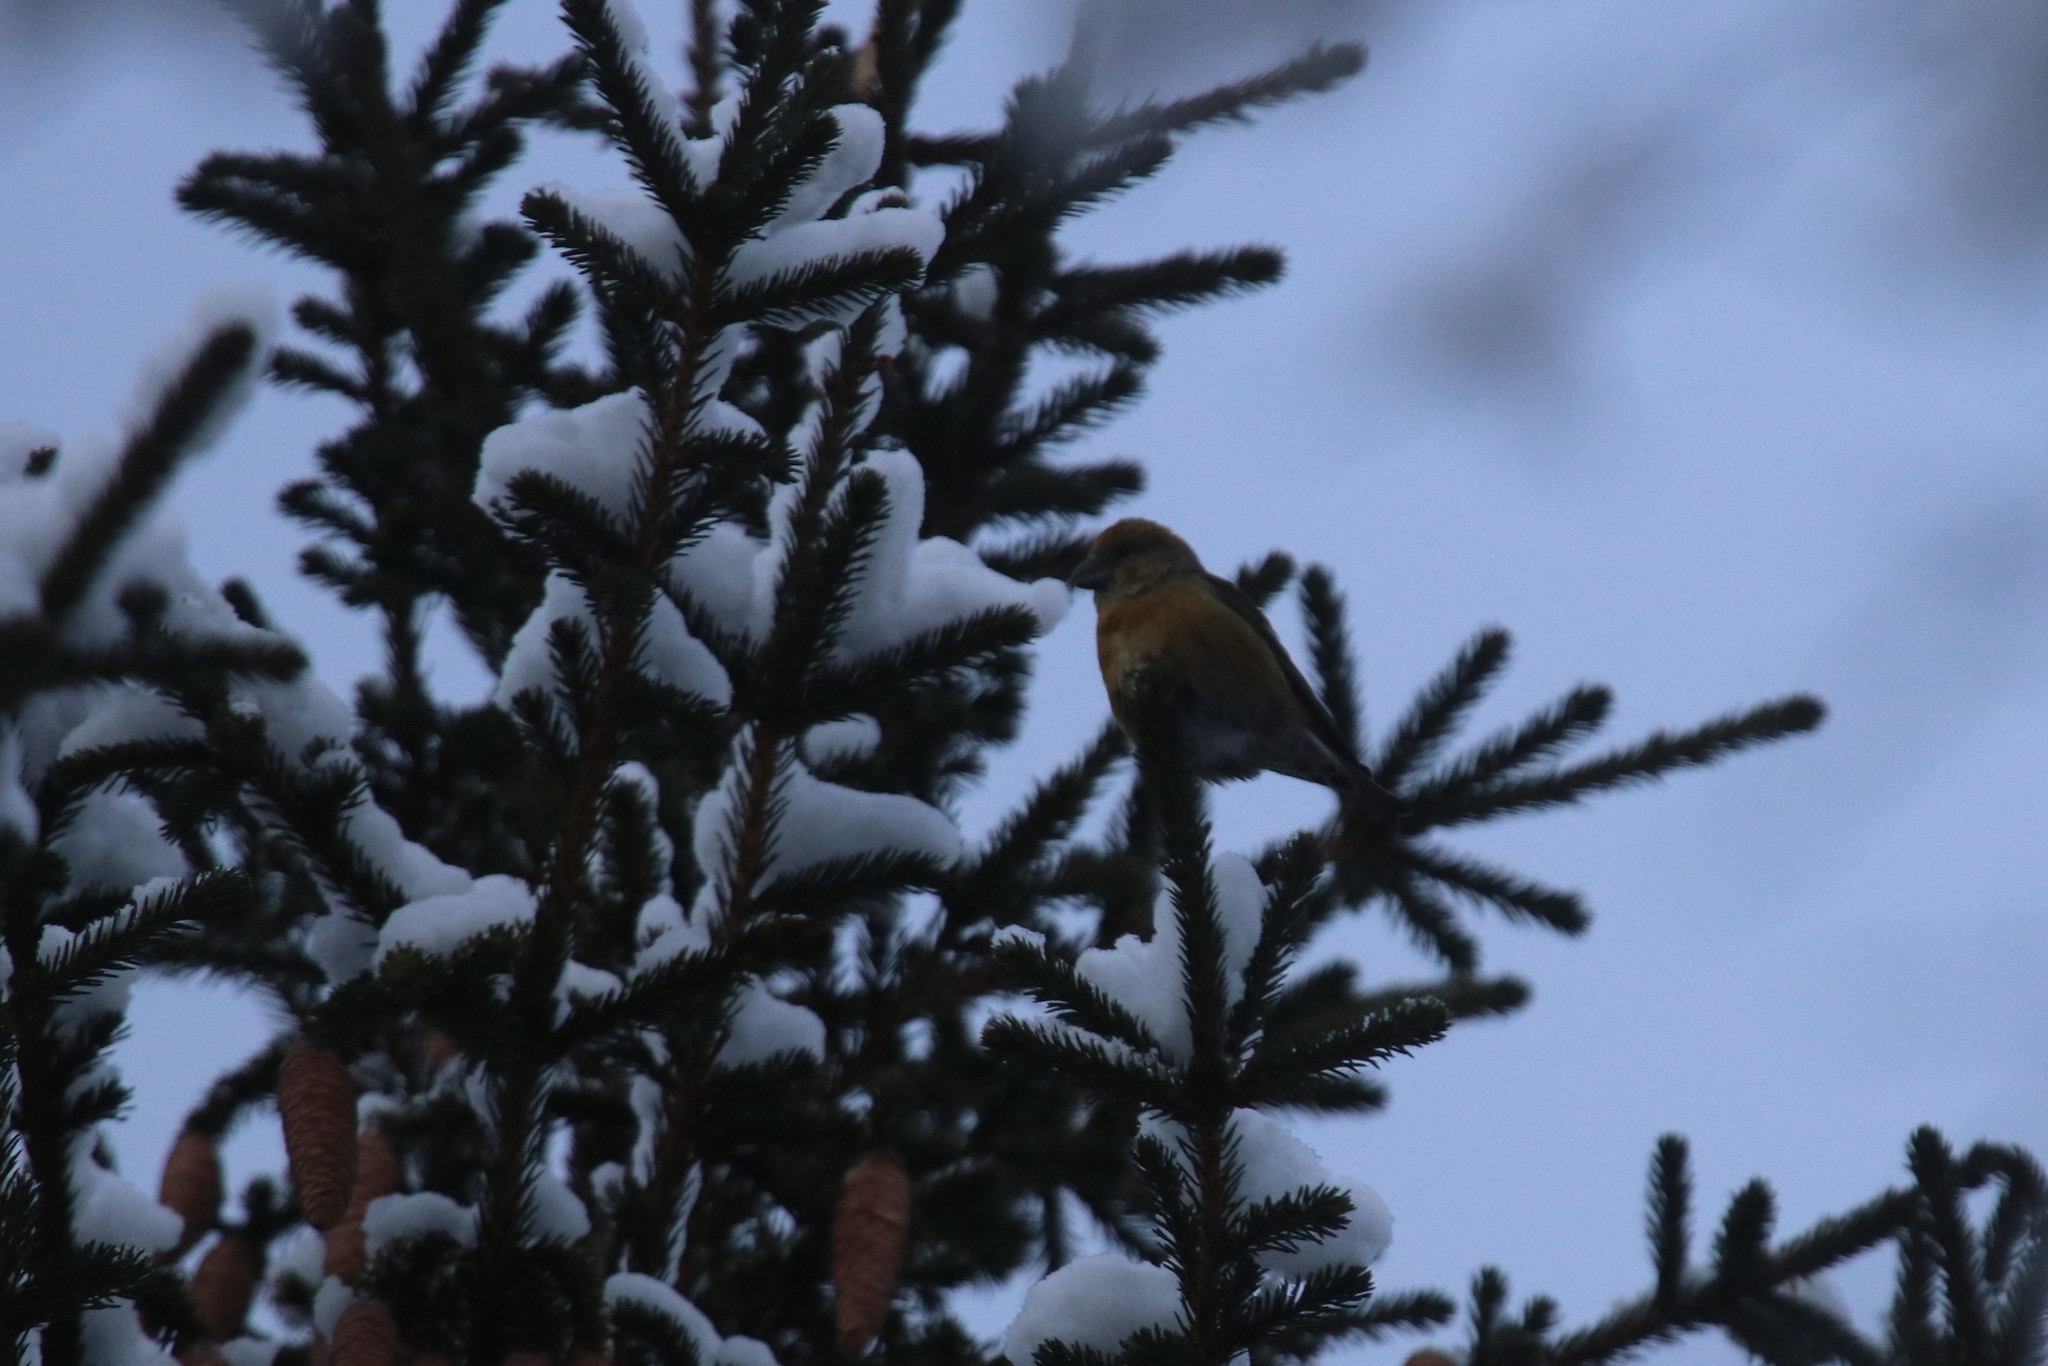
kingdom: Animalia
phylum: Chordata
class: Aves
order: Passeriformes
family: Fringillidae
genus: Loxia
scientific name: Loxia curvirostra
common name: Red crossbill
